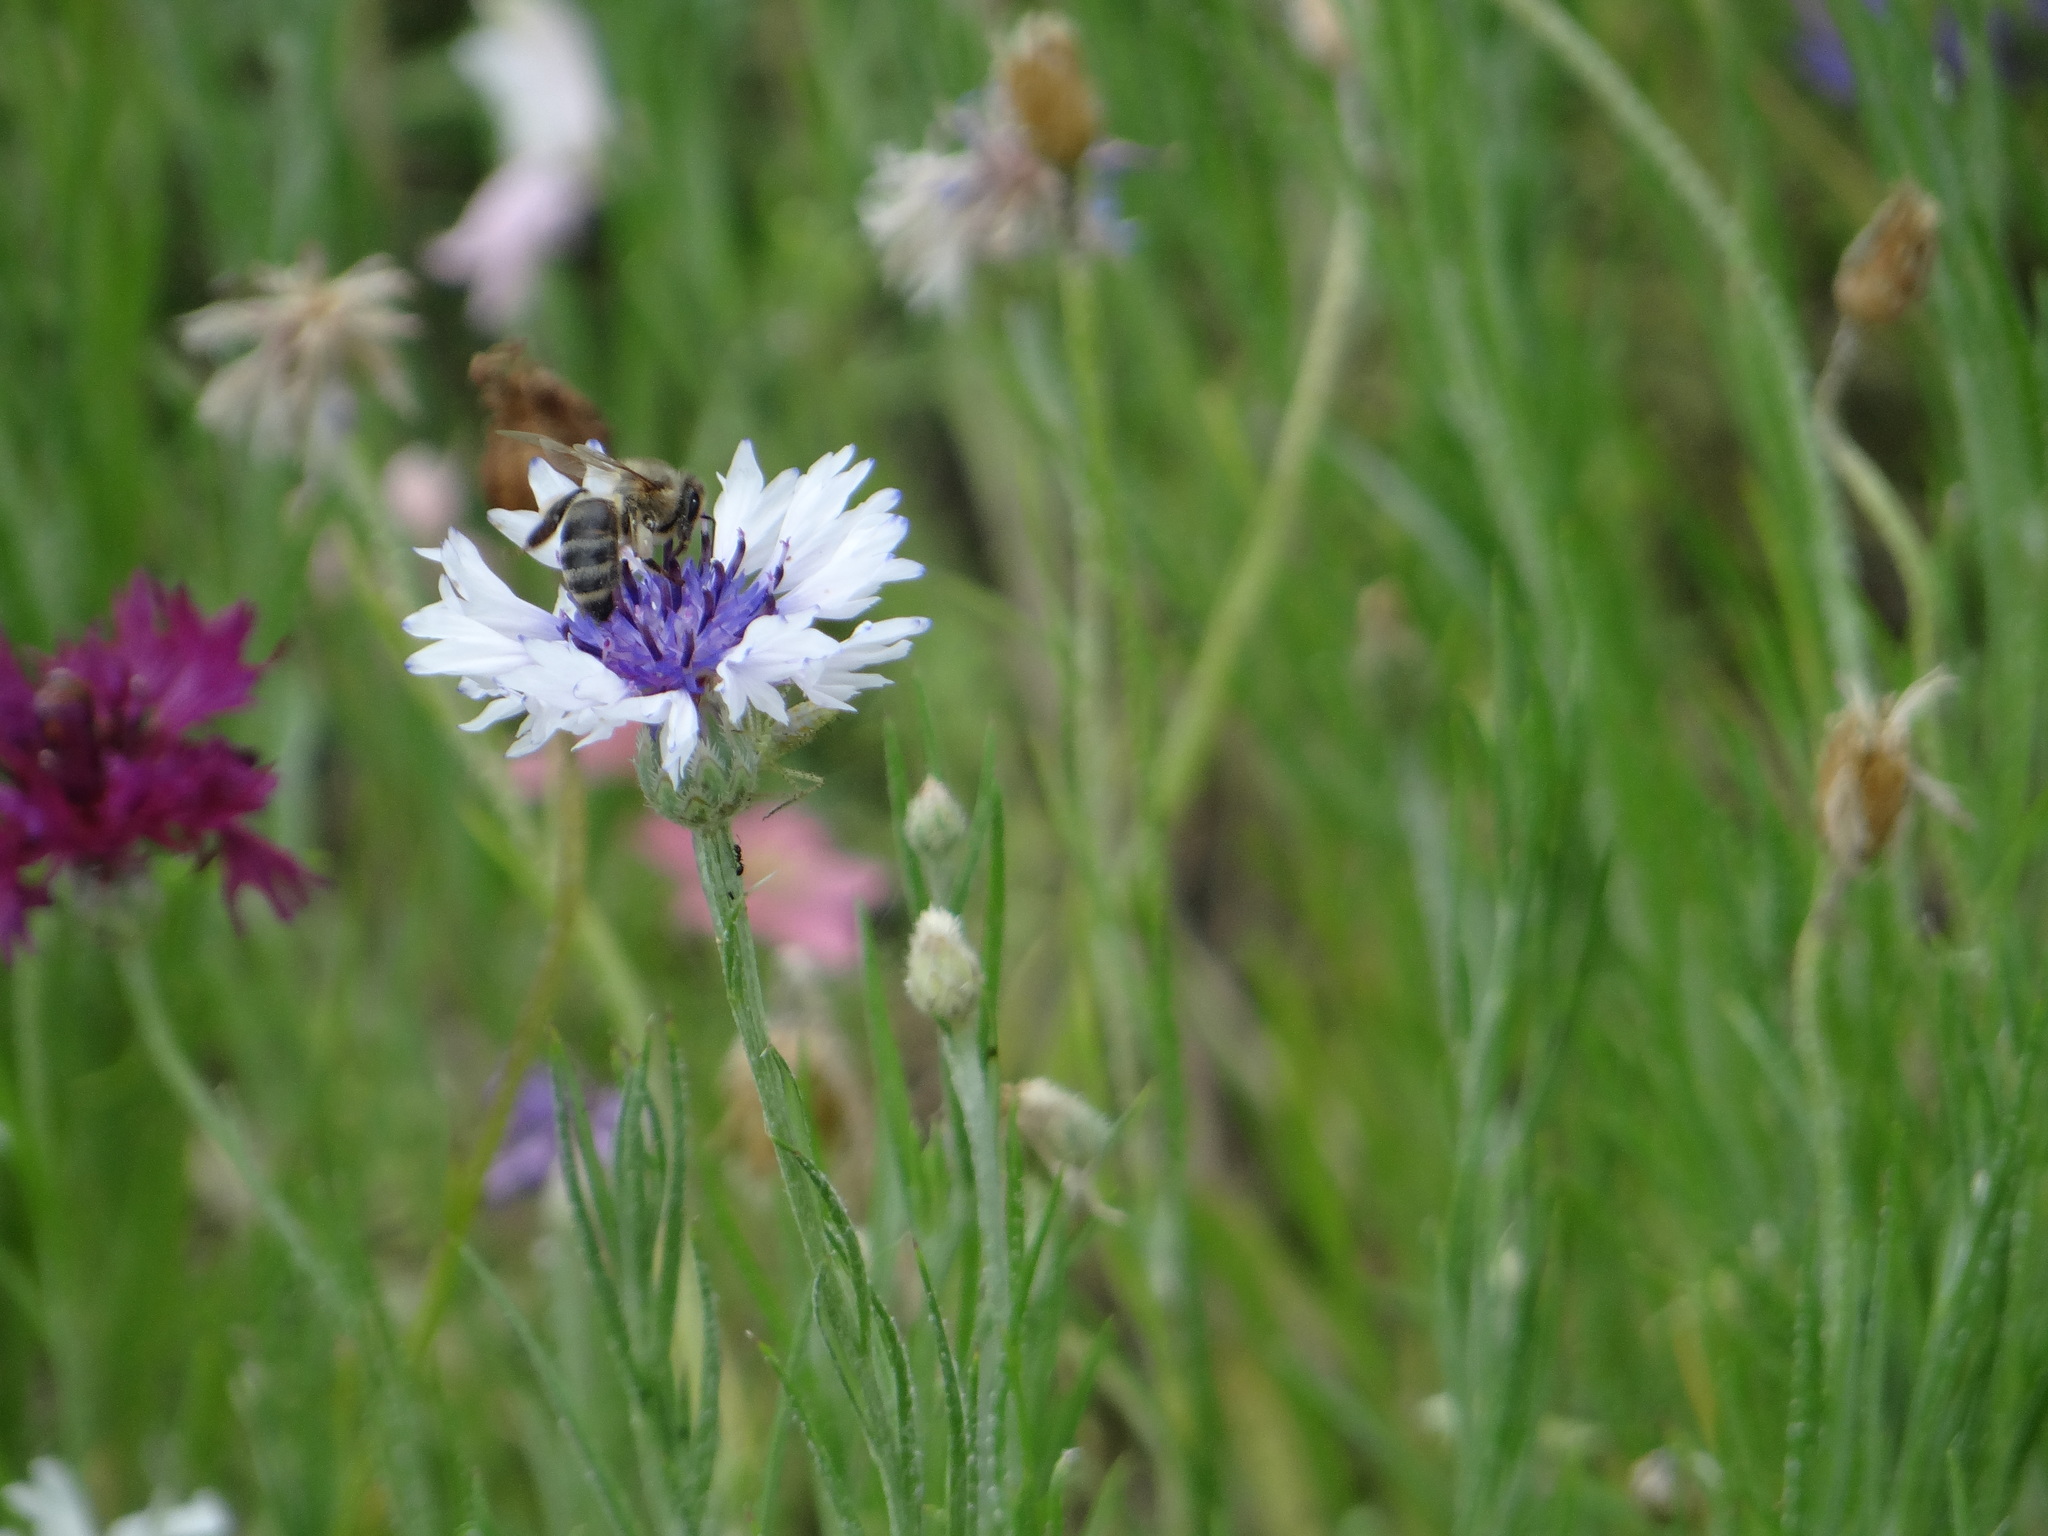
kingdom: Animalia
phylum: Arthropoda
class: Insecta
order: Hymenoptera
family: Apidae
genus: Apis
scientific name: Apis mellifera
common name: Honey bee
